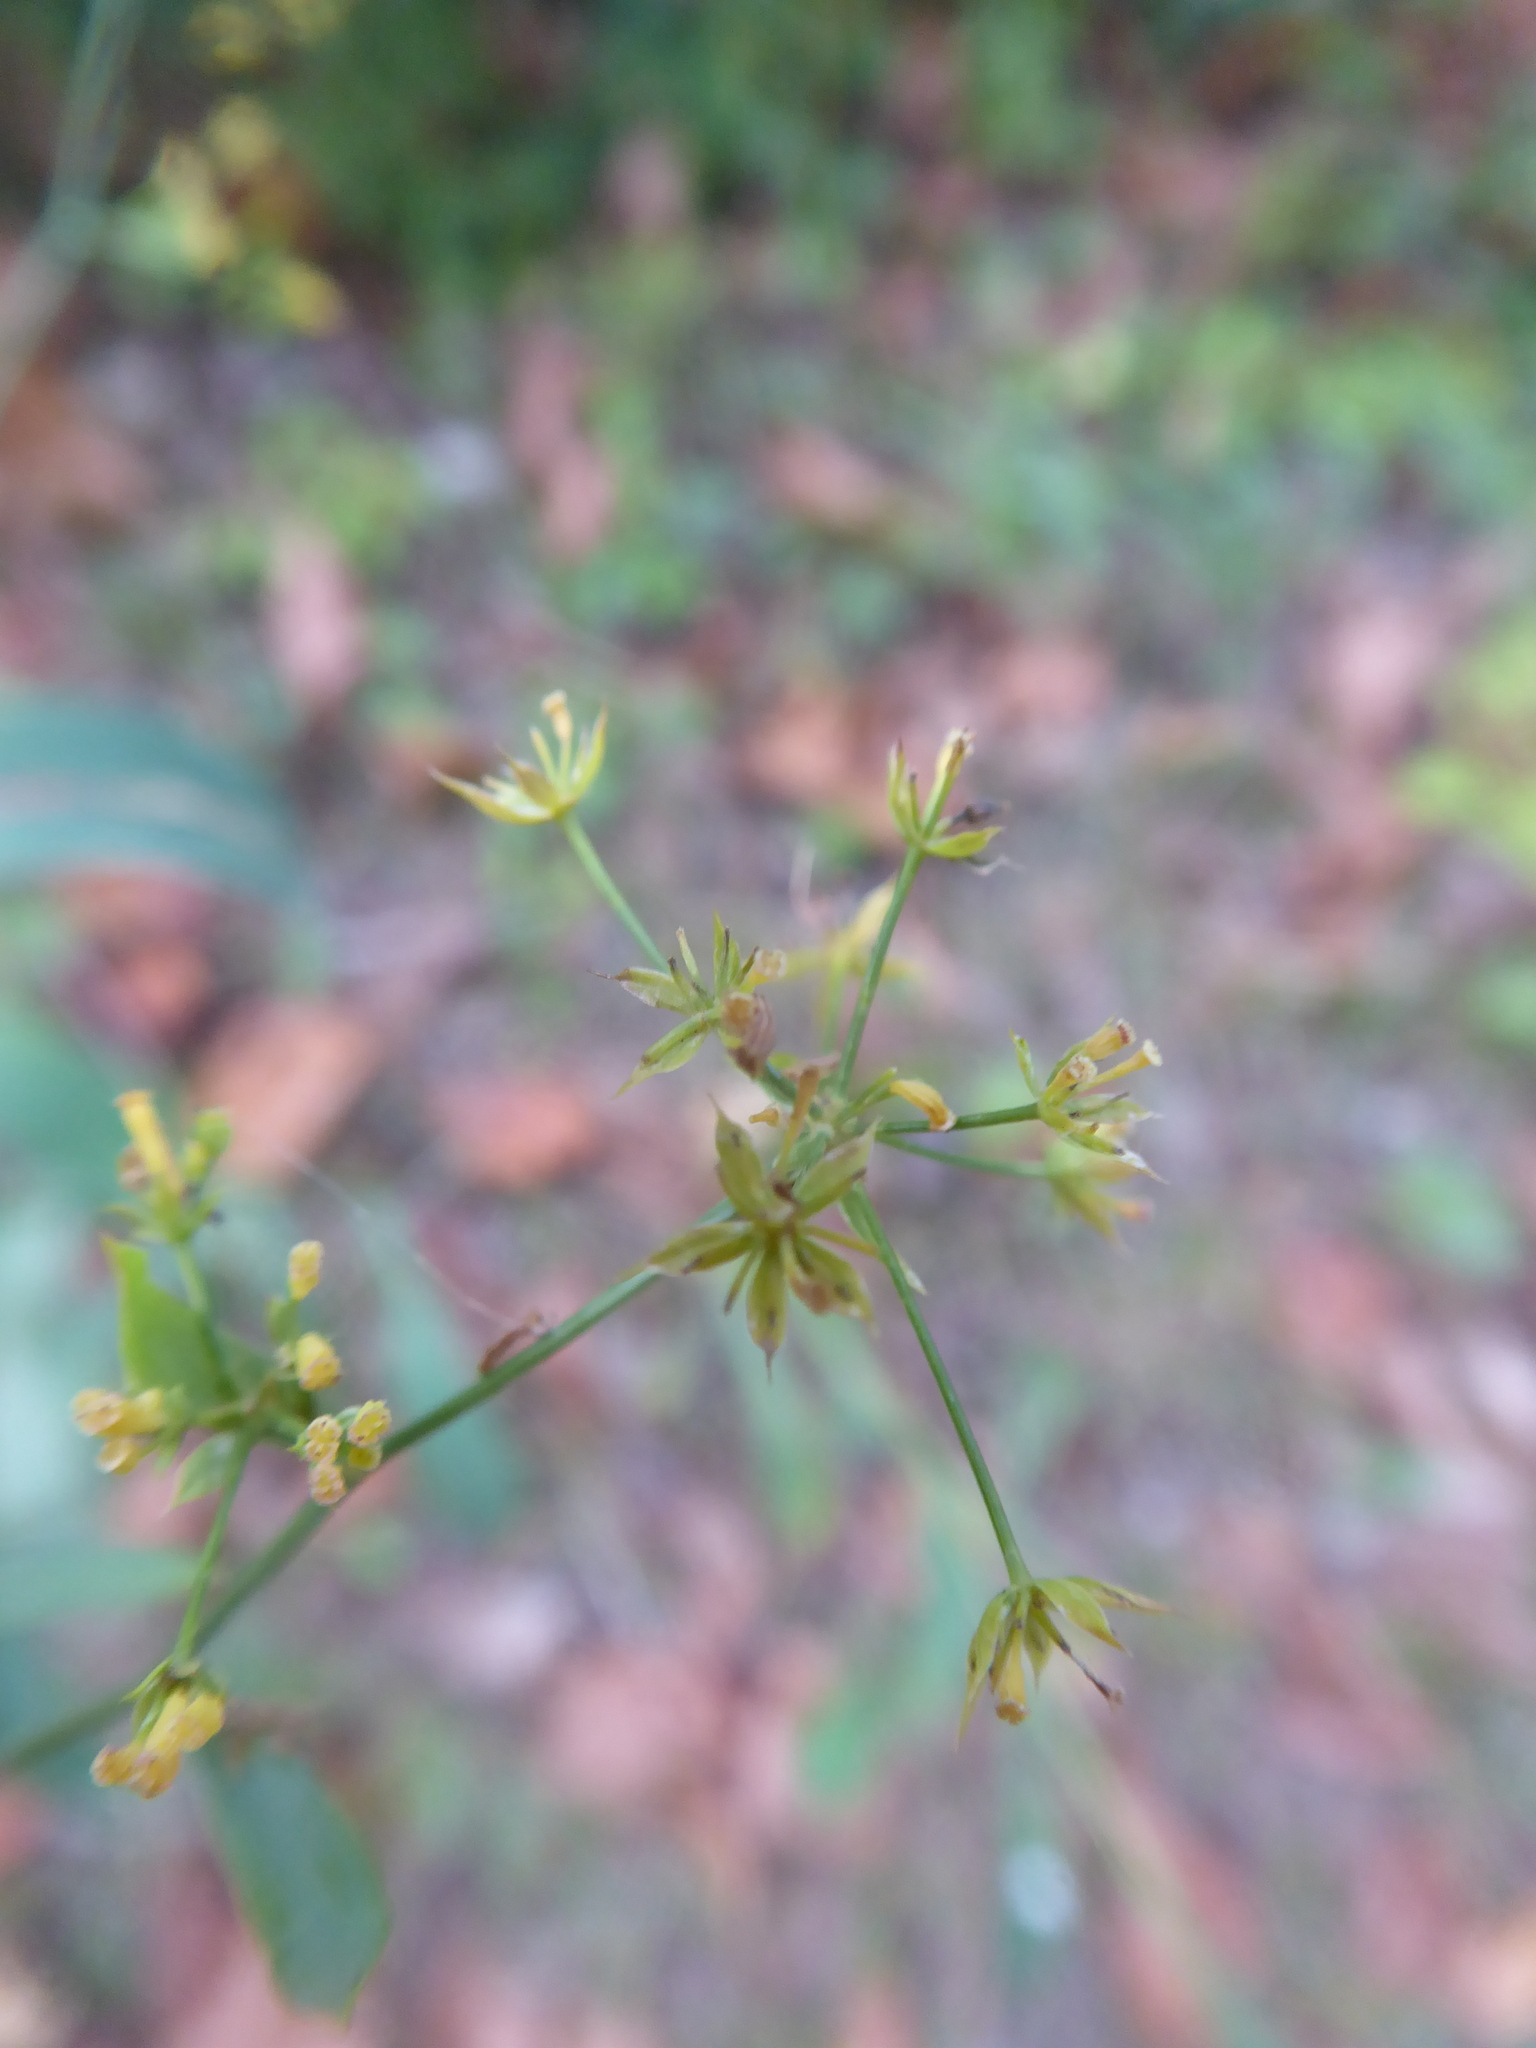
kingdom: Plantae
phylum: Tracheophyta
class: Magnoliopsida
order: Apiales
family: Apiaceae
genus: Bupleurum
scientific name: Bupleurum falcatum
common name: Sickle-leaved hare's-ear
